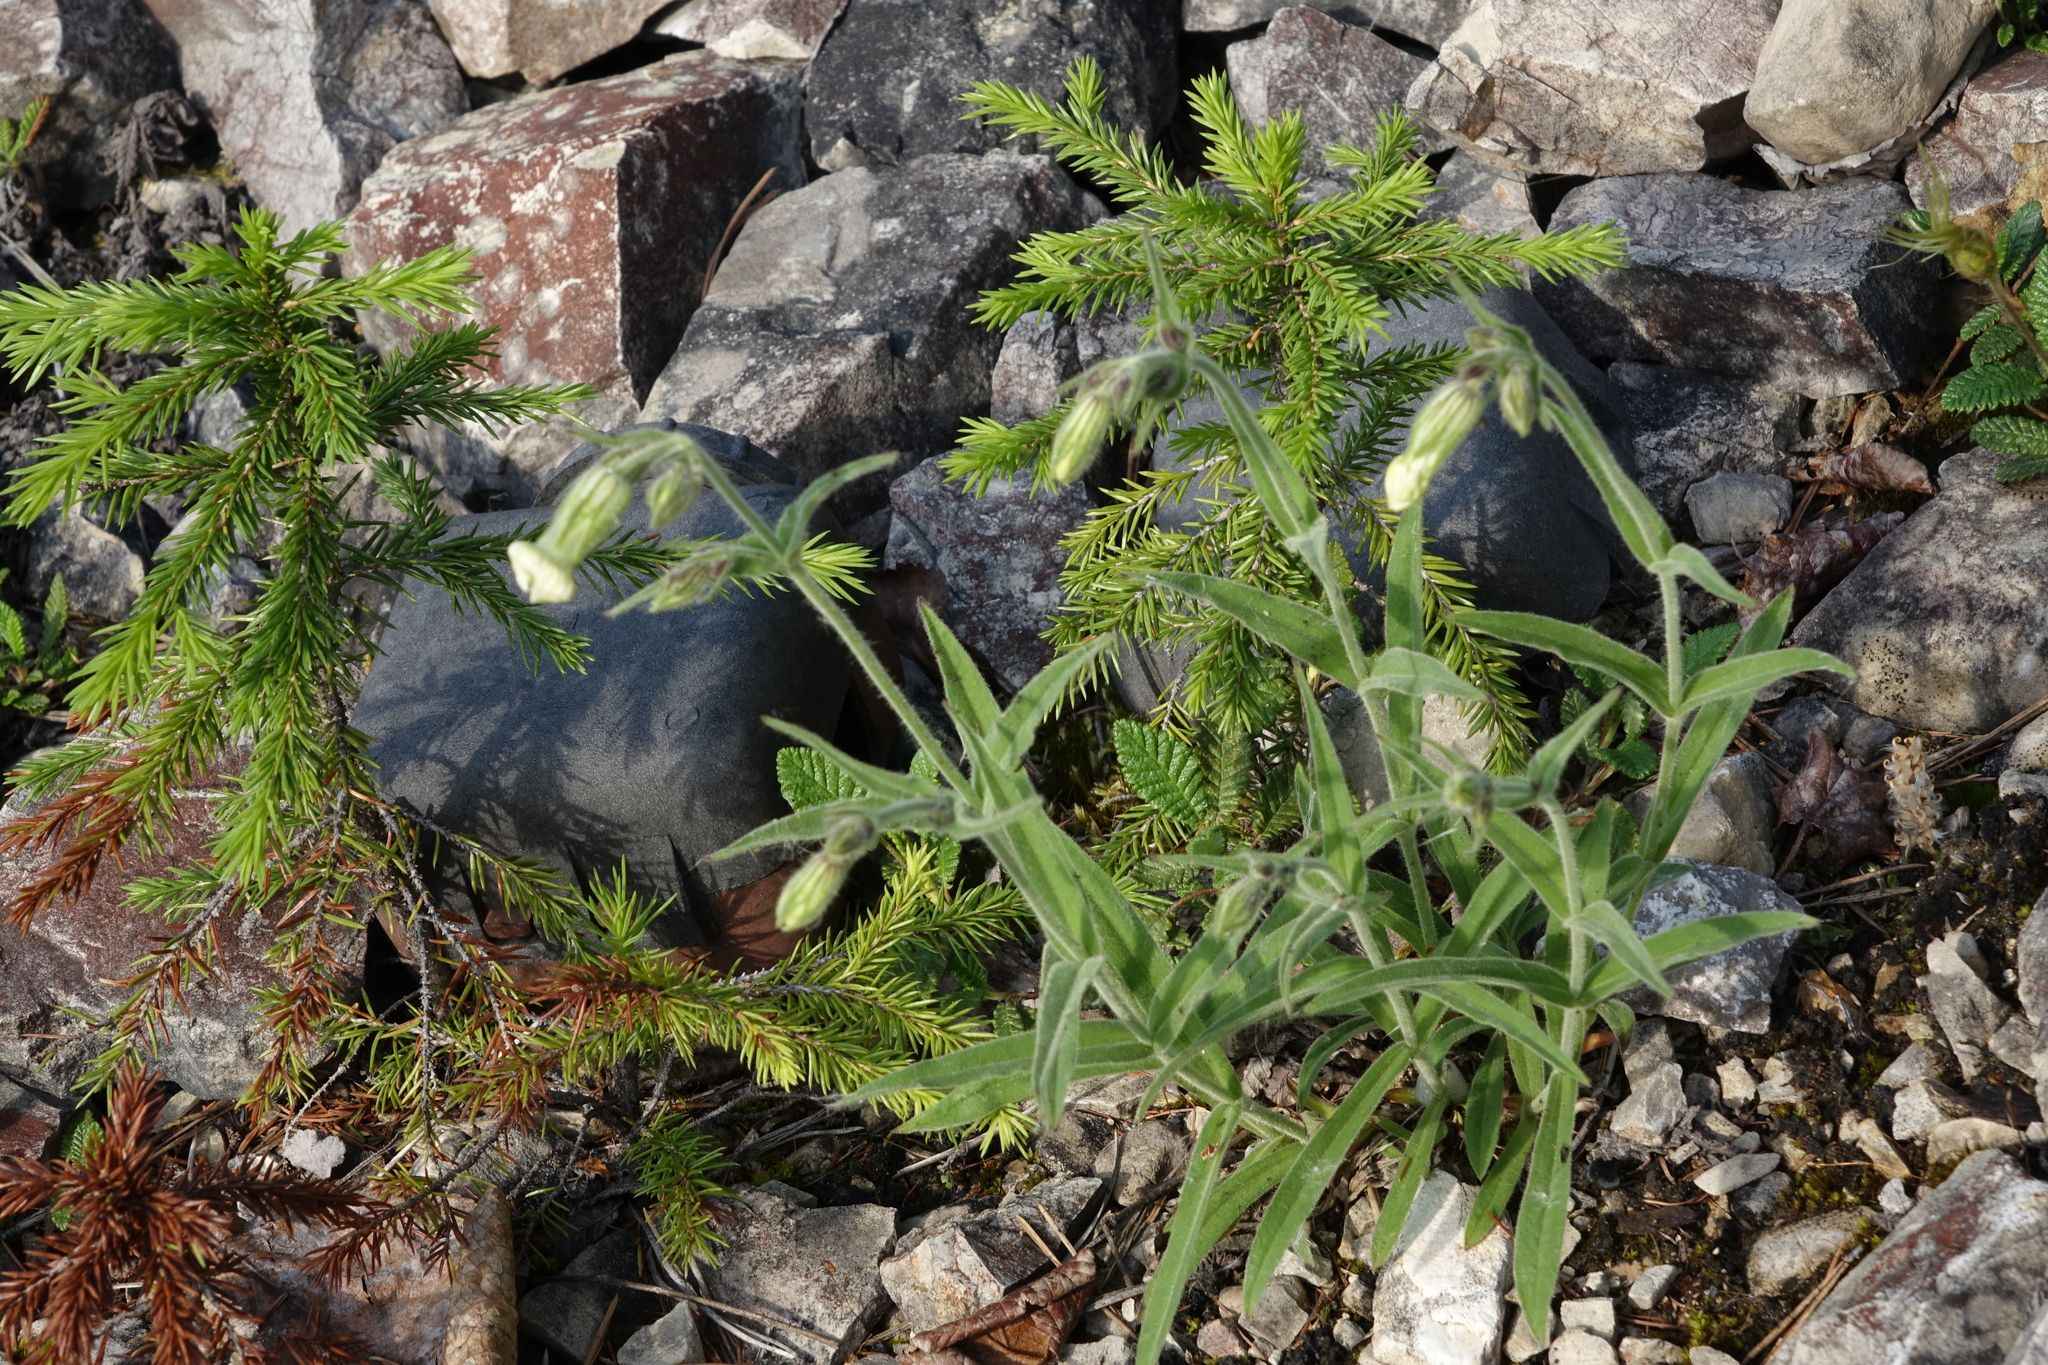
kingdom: Plantae
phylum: Tracheophyta
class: Pinopsida
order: Pinales
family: Pinaceae
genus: Picea
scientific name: Picea obovata
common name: Siberian spruce
